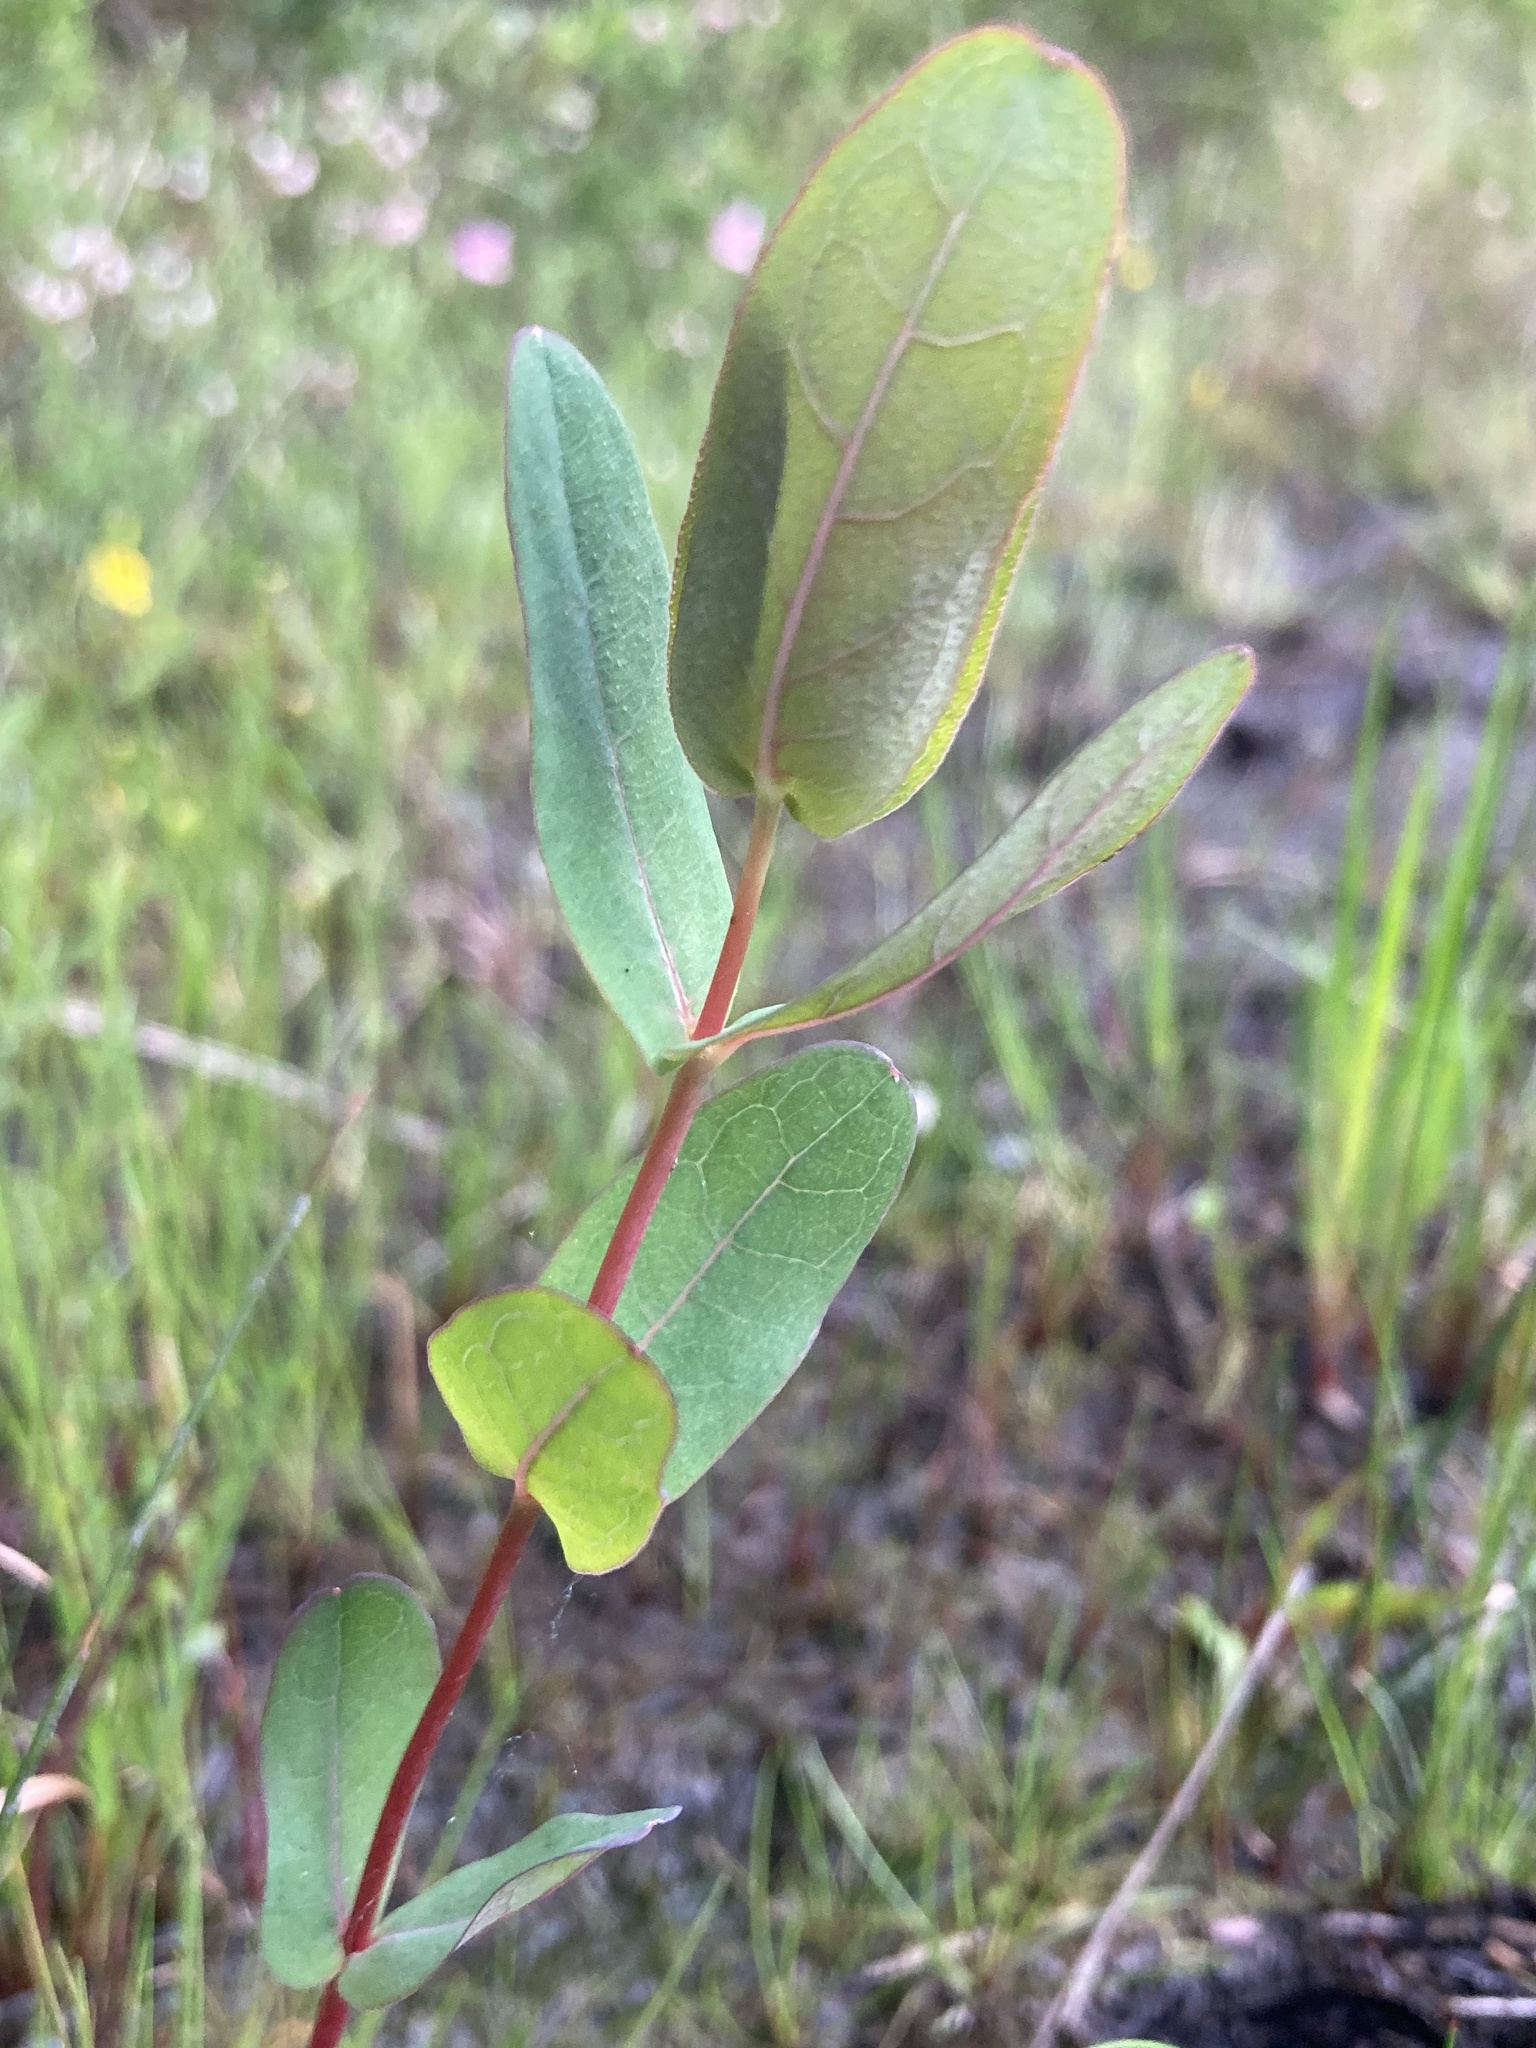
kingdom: Plantae
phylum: Tracheophyta
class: Magnoliopsida
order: Malpighiales
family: Hypericaceae
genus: Triadenum
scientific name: Triadenum virginicum
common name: Marsh st. john's-wort
